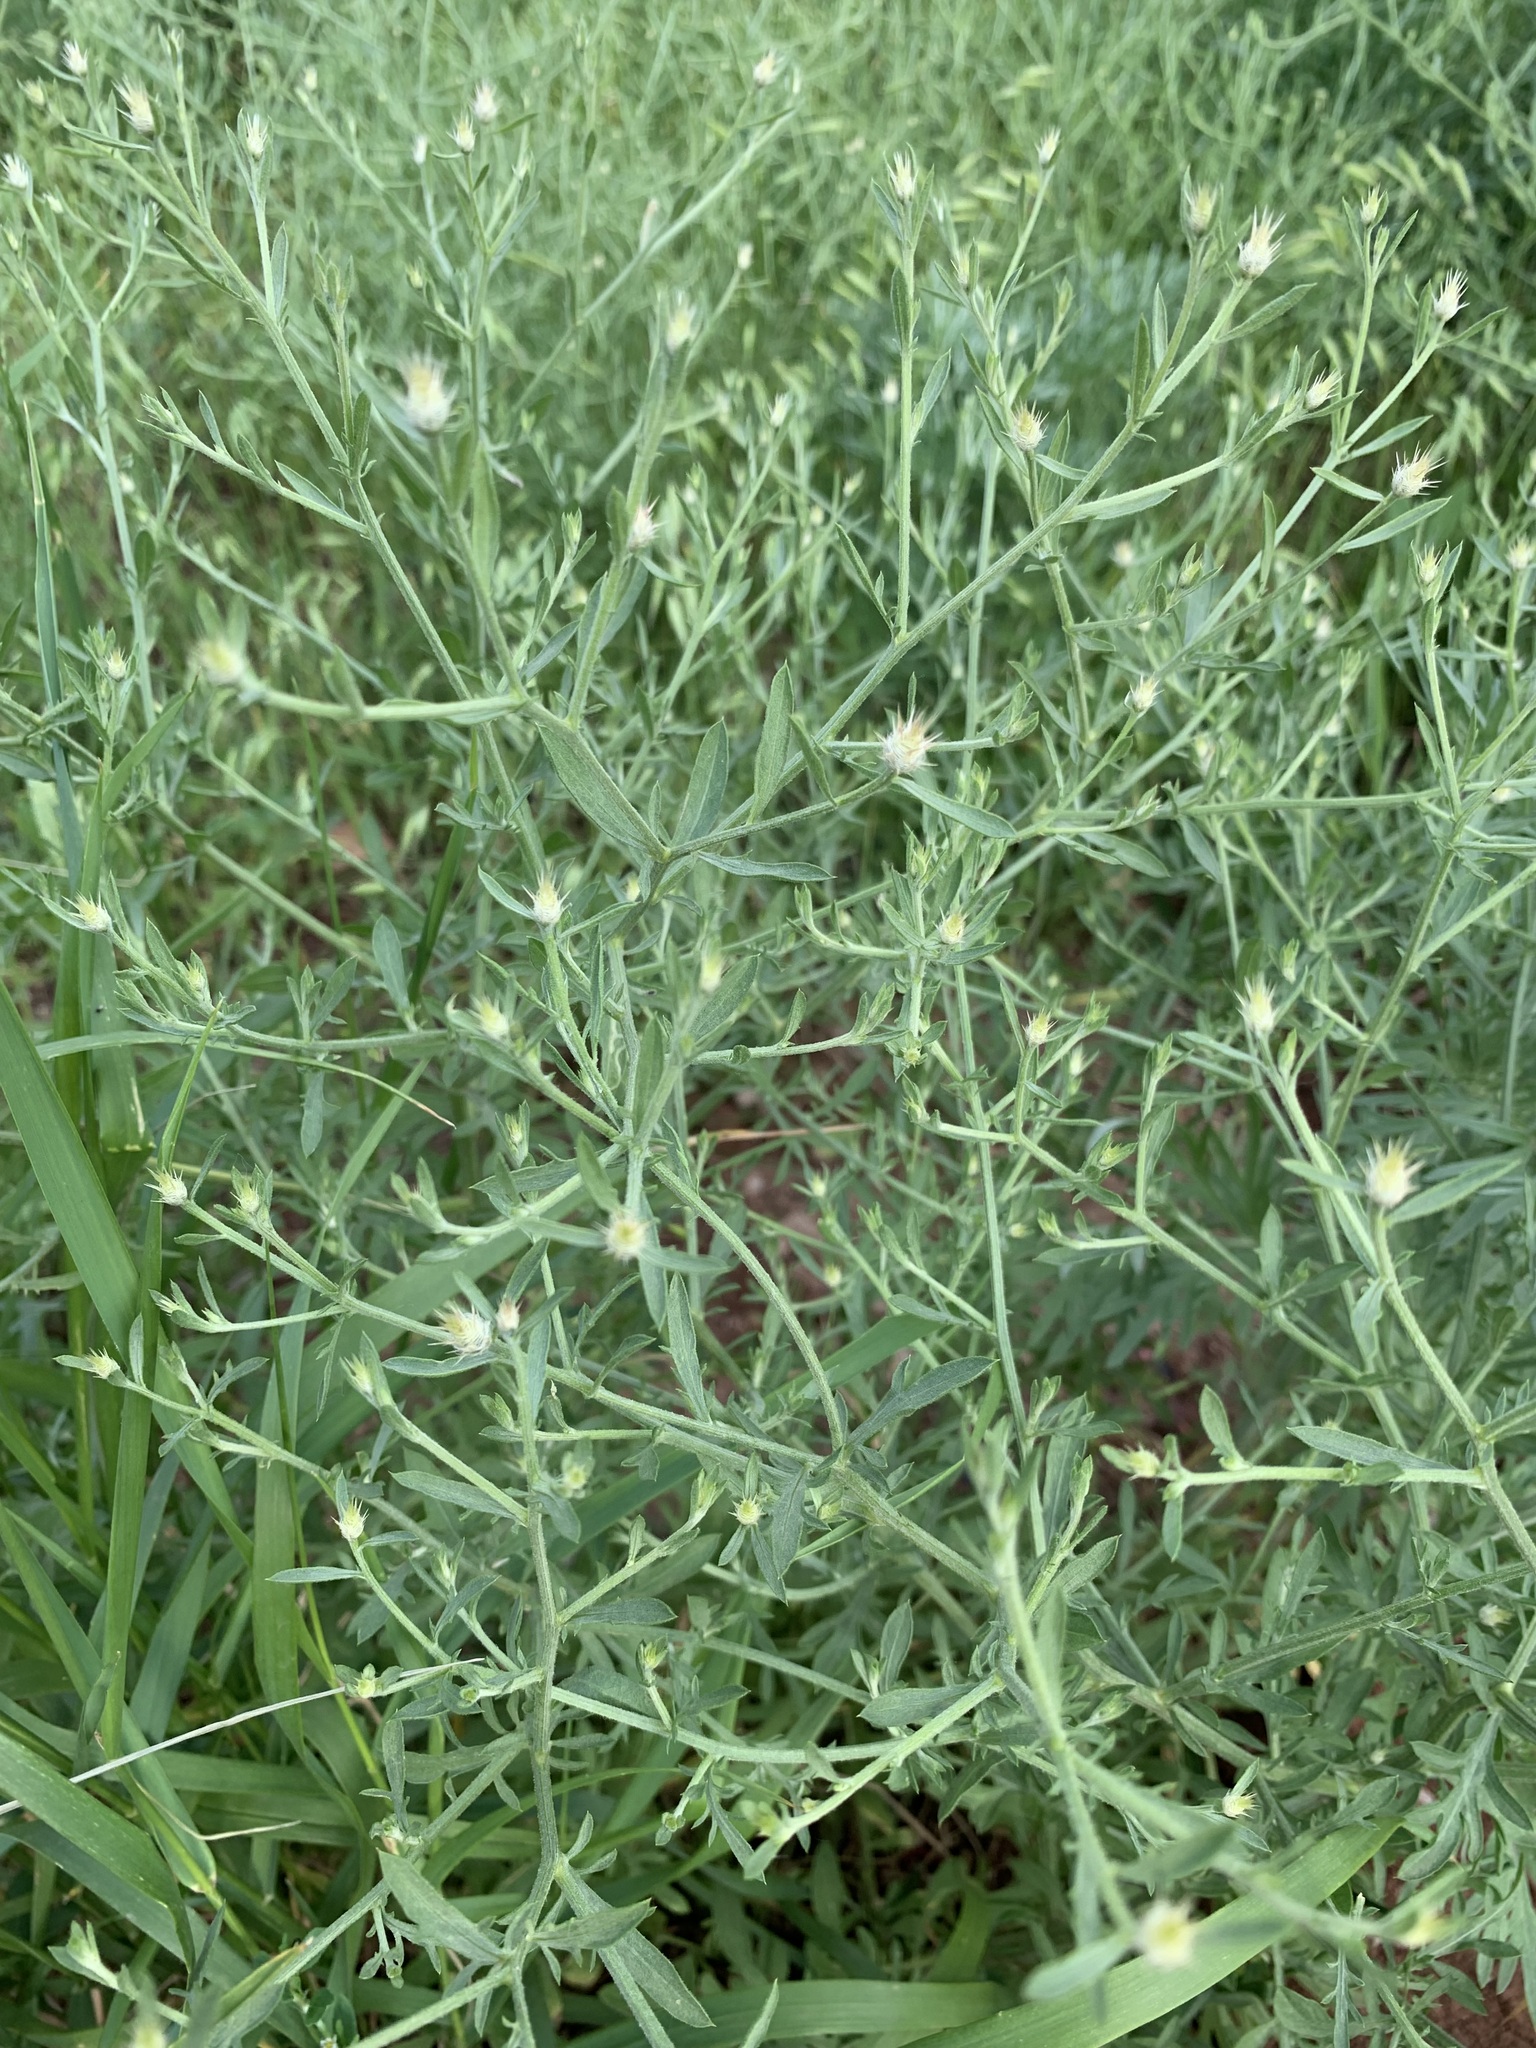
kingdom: Plantae
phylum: Tracheophyta
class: Magnoliopsida
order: Asterales
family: Asteraceae
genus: Centaurea
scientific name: Centaurea diffusa
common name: Diffuse knapweed
